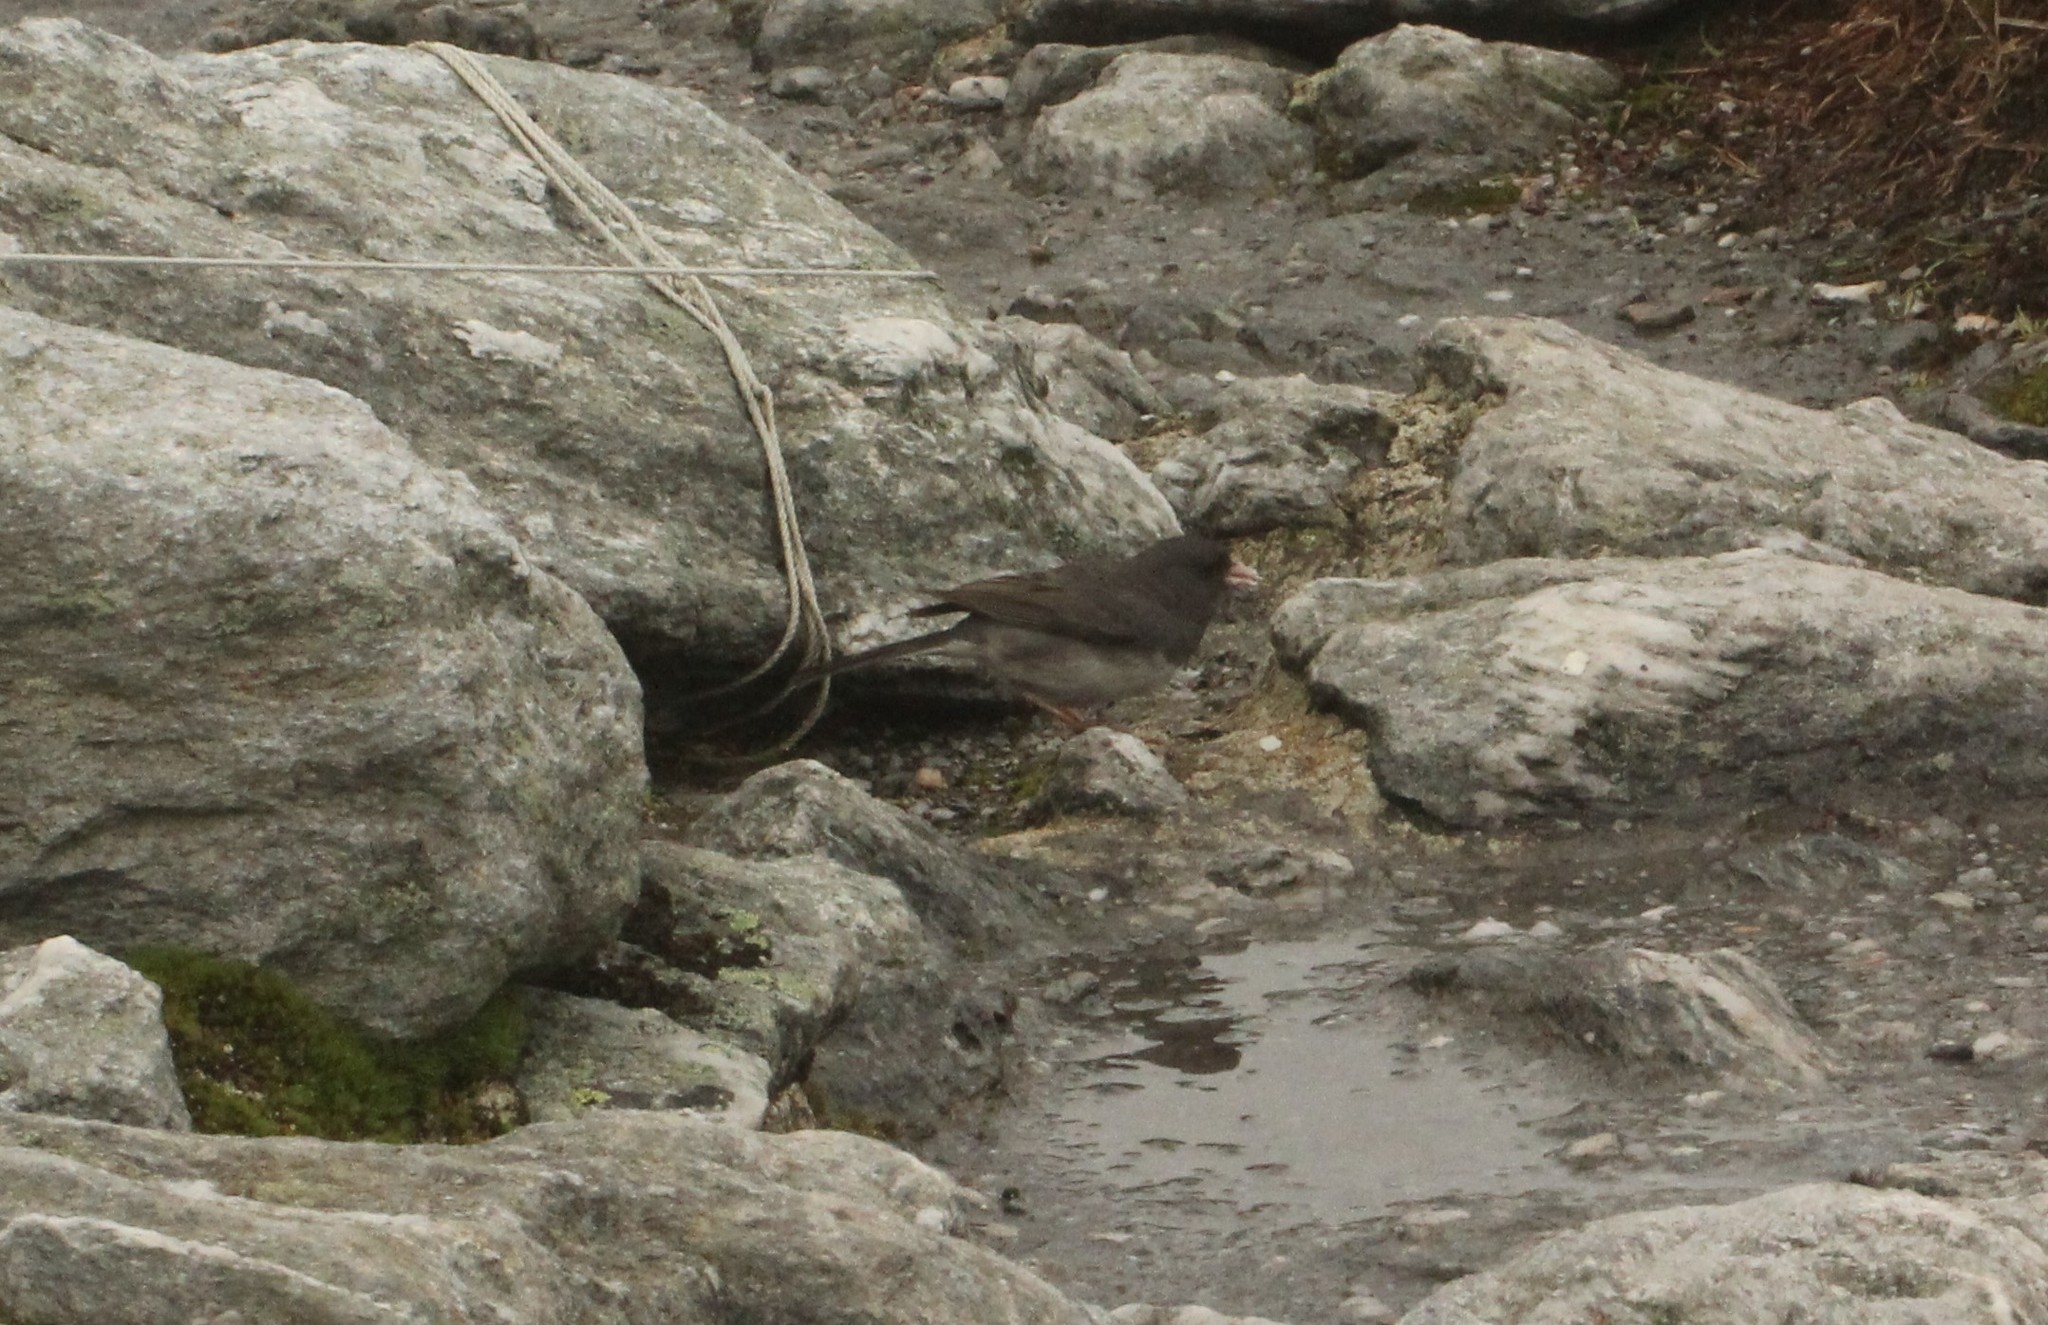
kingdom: Animalia
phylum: Chordata
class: Aves
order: Passeriformes
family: Passerellidae
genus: Junco
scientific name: Junco hyemalis
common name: Dark-eyed junco
